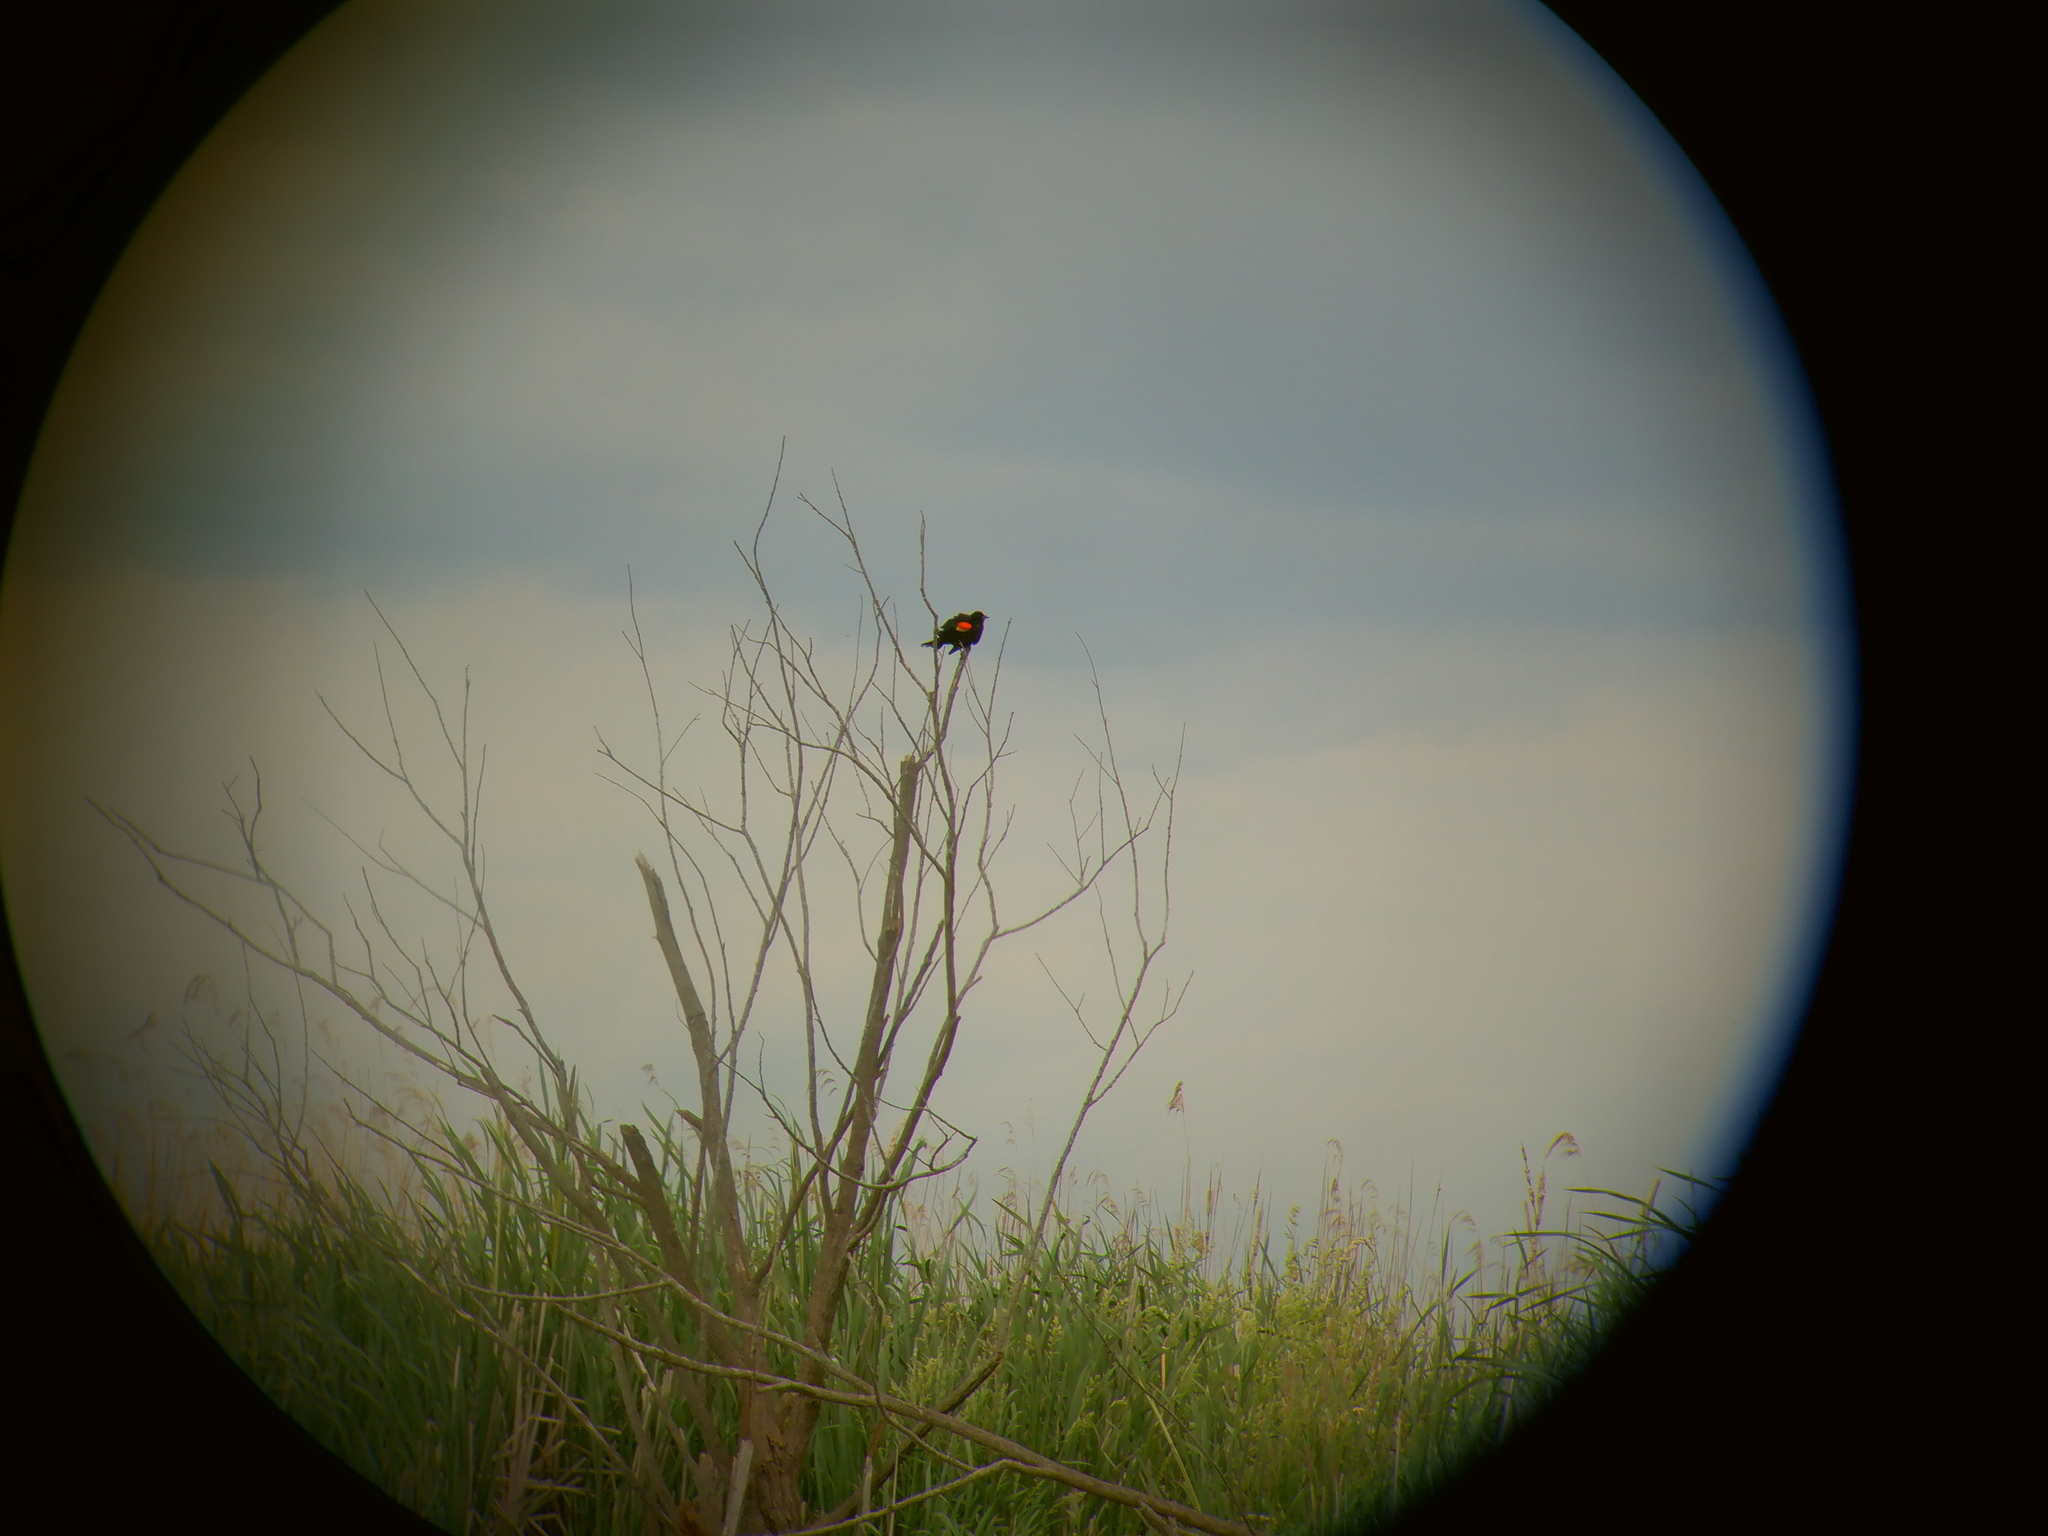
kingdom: Animalia
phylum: Chordata
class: Aves
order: Passeriformes
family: Icteridae
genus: Agelaius
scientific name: Agelaius phoeniceus
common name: Red-winged blackbird
